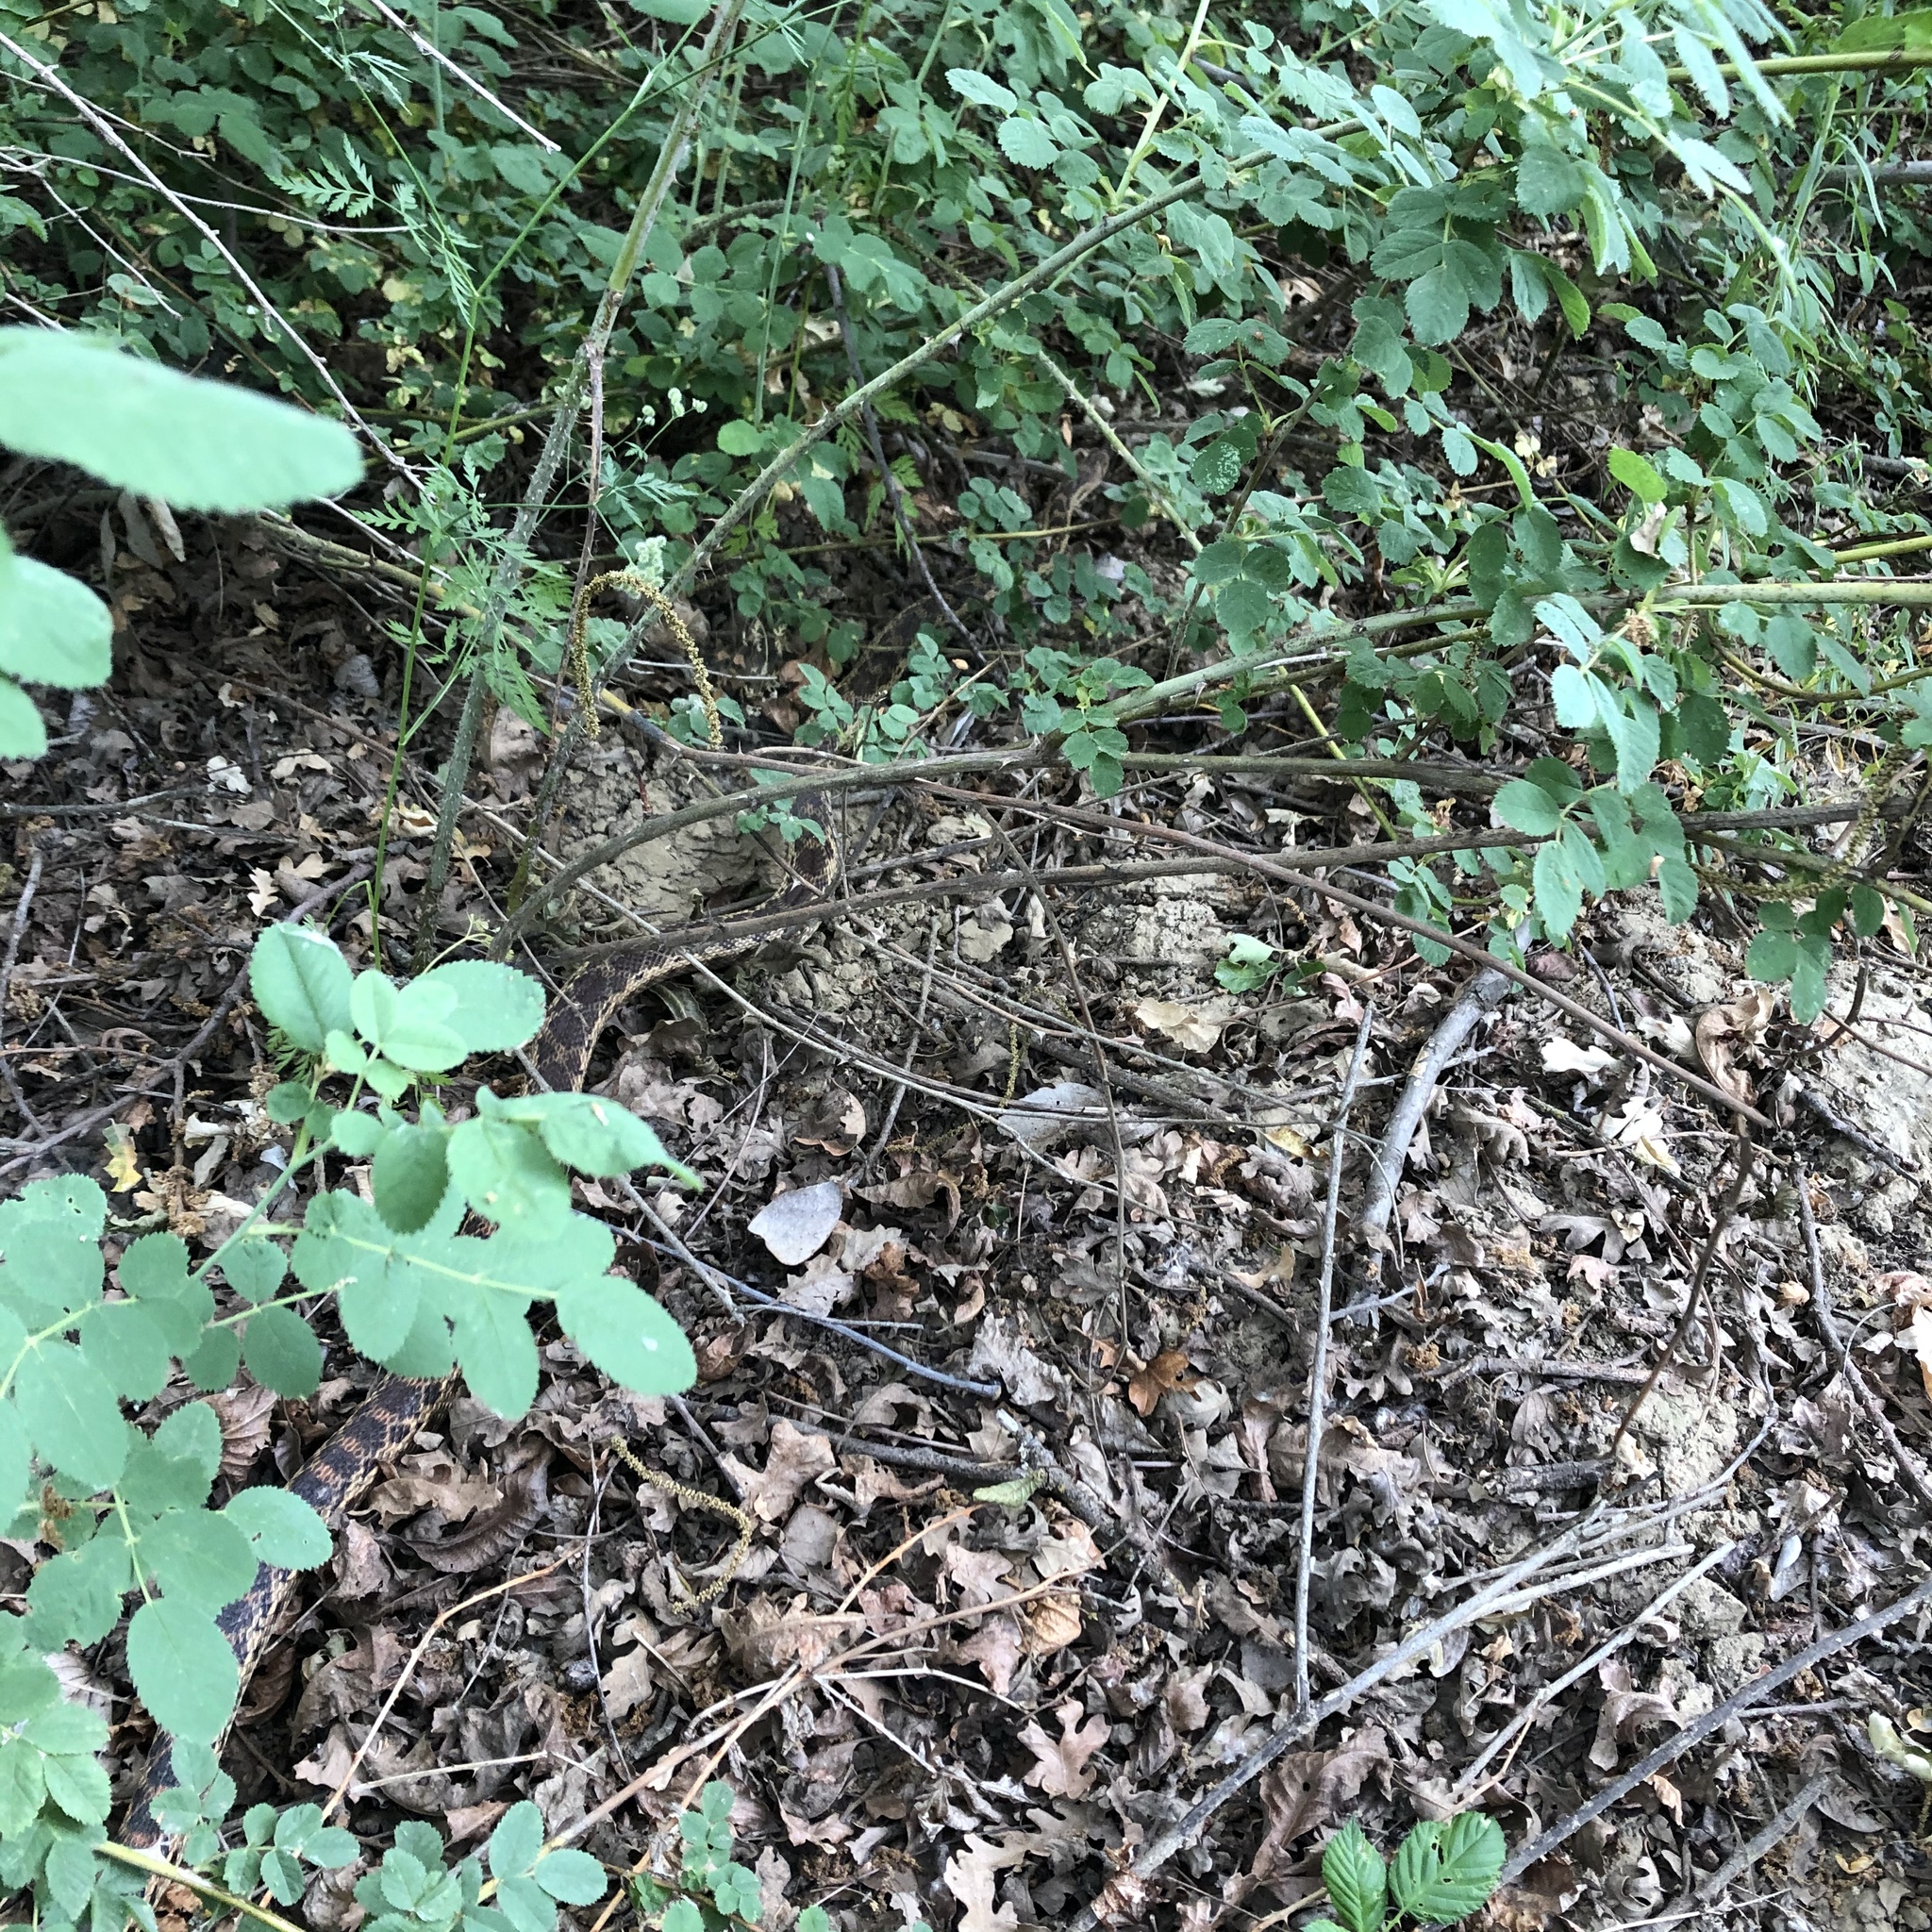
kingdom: Animalia
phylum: Chordata
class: Squamata
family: Colubridae
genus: Pituophis
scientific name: Pituophis catenifer
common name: Gopher snake
